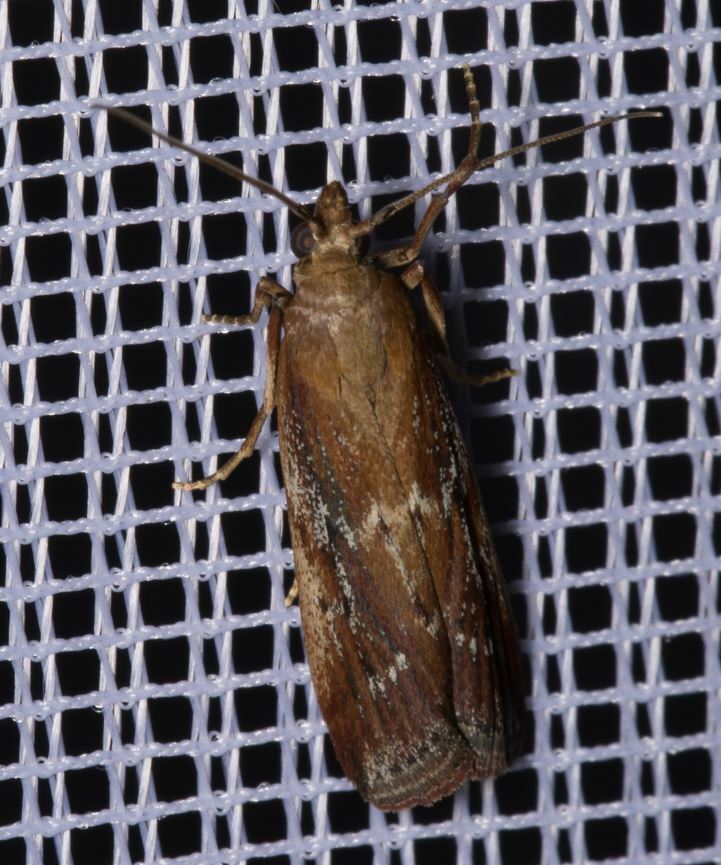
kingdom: Animalia
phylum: Arthropoda
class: Insecta
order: Lepidoptera
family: Pyralidae
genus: Uncinus
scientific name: Uncinus obductella
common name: Kent knot-horn
